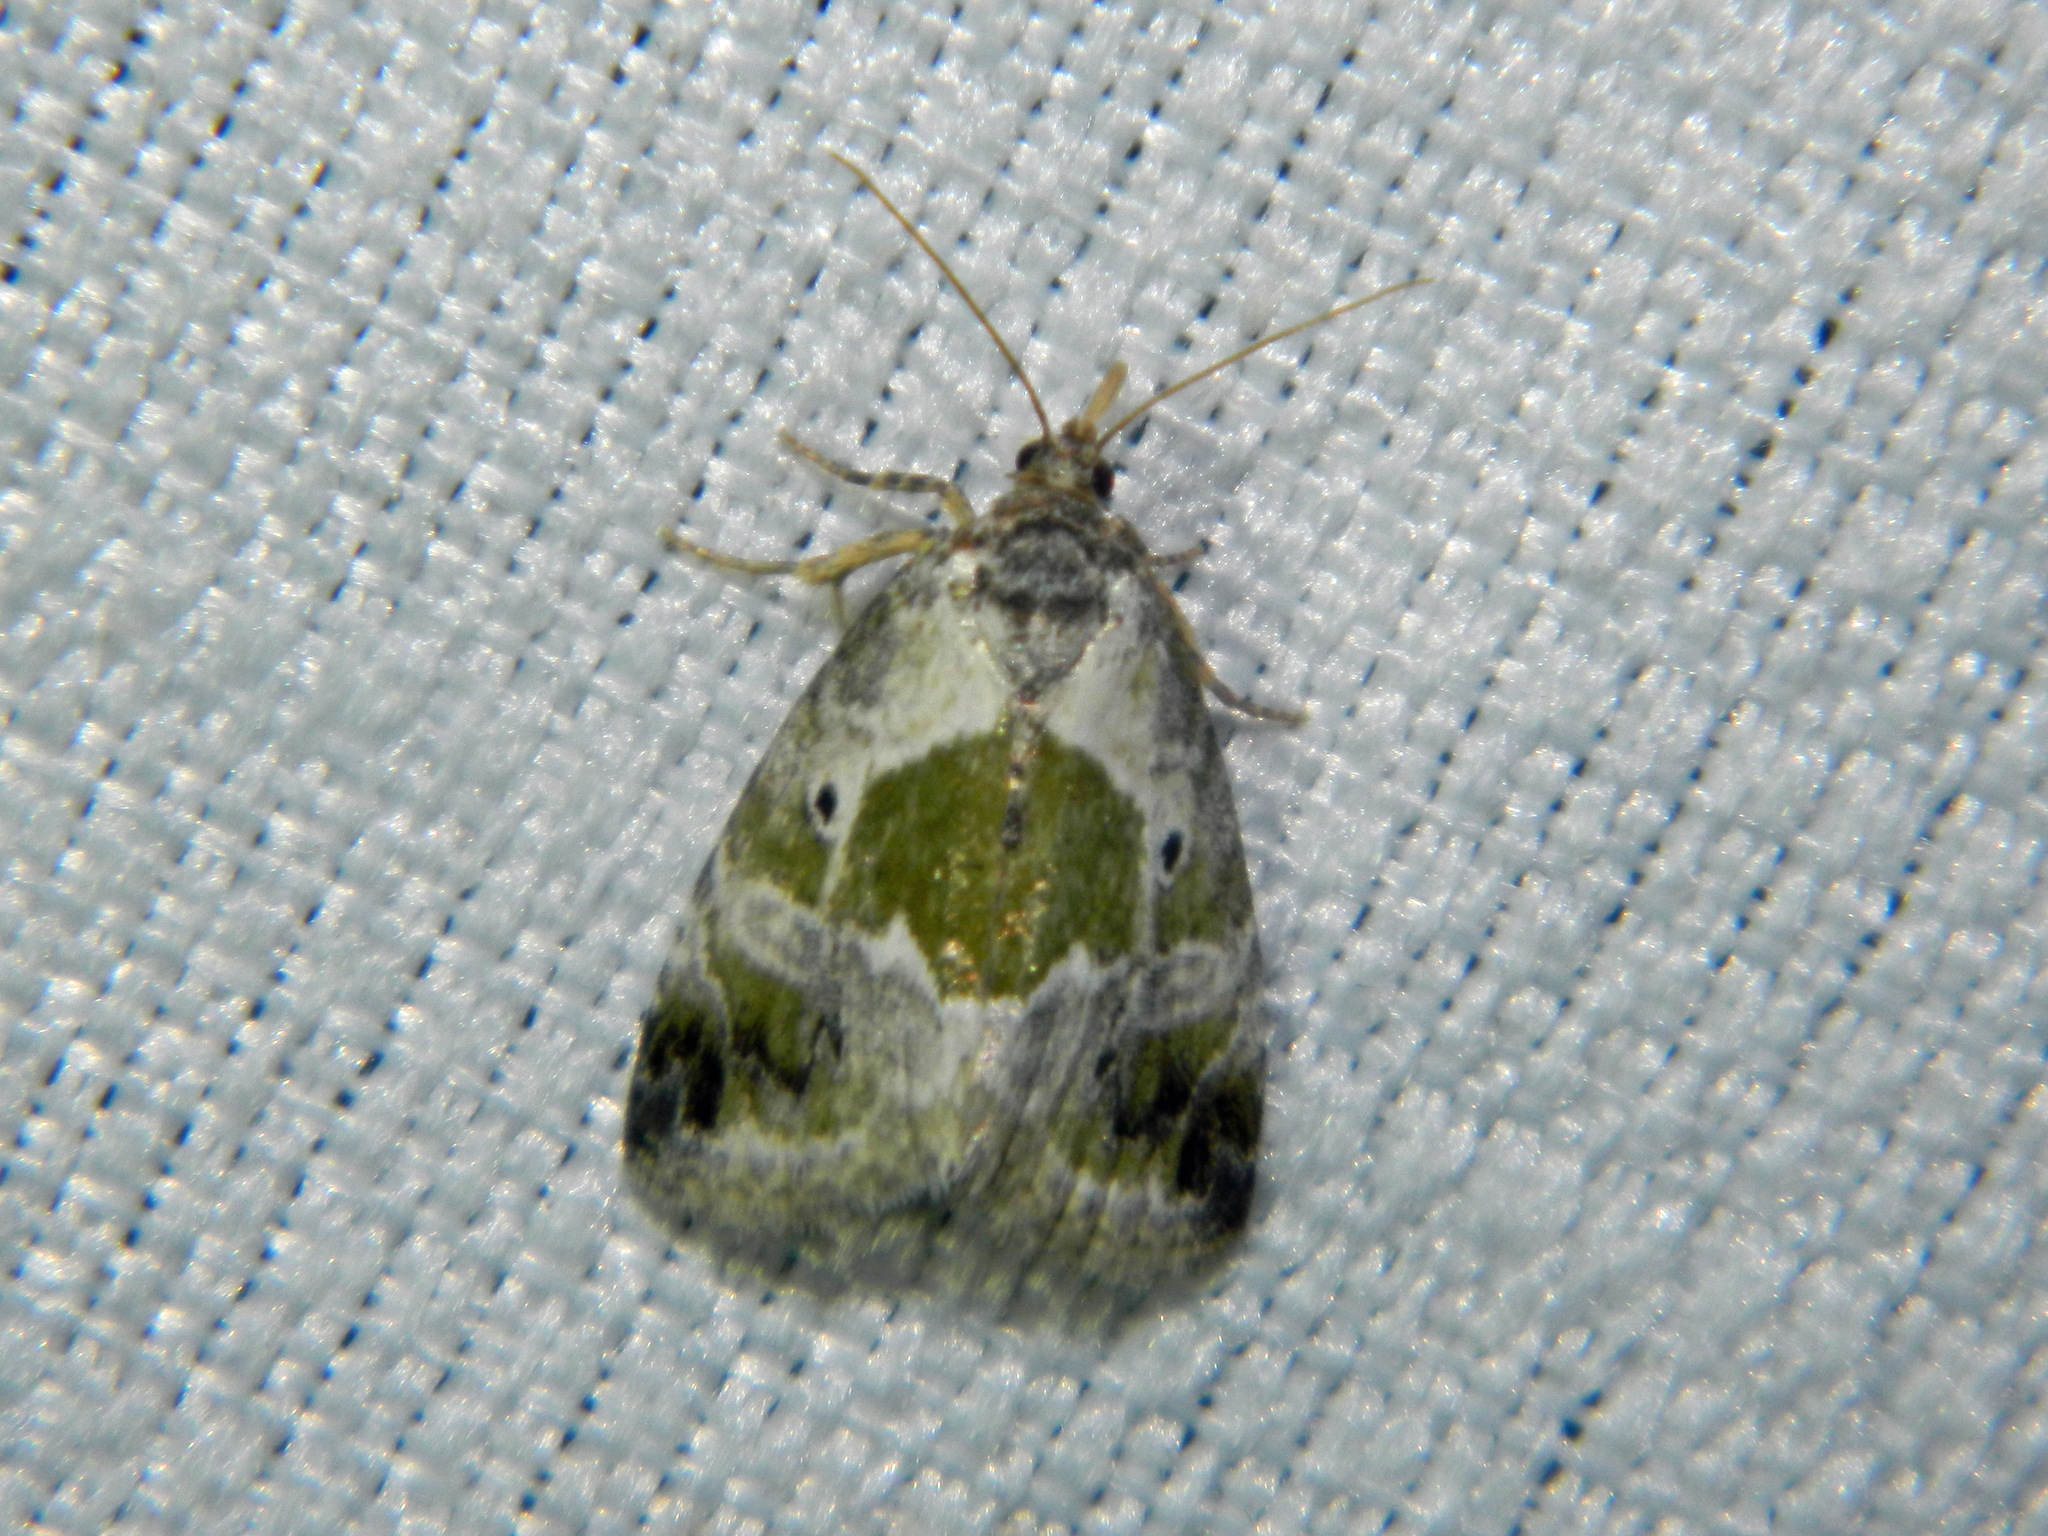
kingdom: Animalia
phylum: Arthropoda
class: Insecta
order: Lepidoptera
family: Noctuidae
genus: Maliattha
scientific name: Maliattha synochitis
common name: Black-dotted glyph
